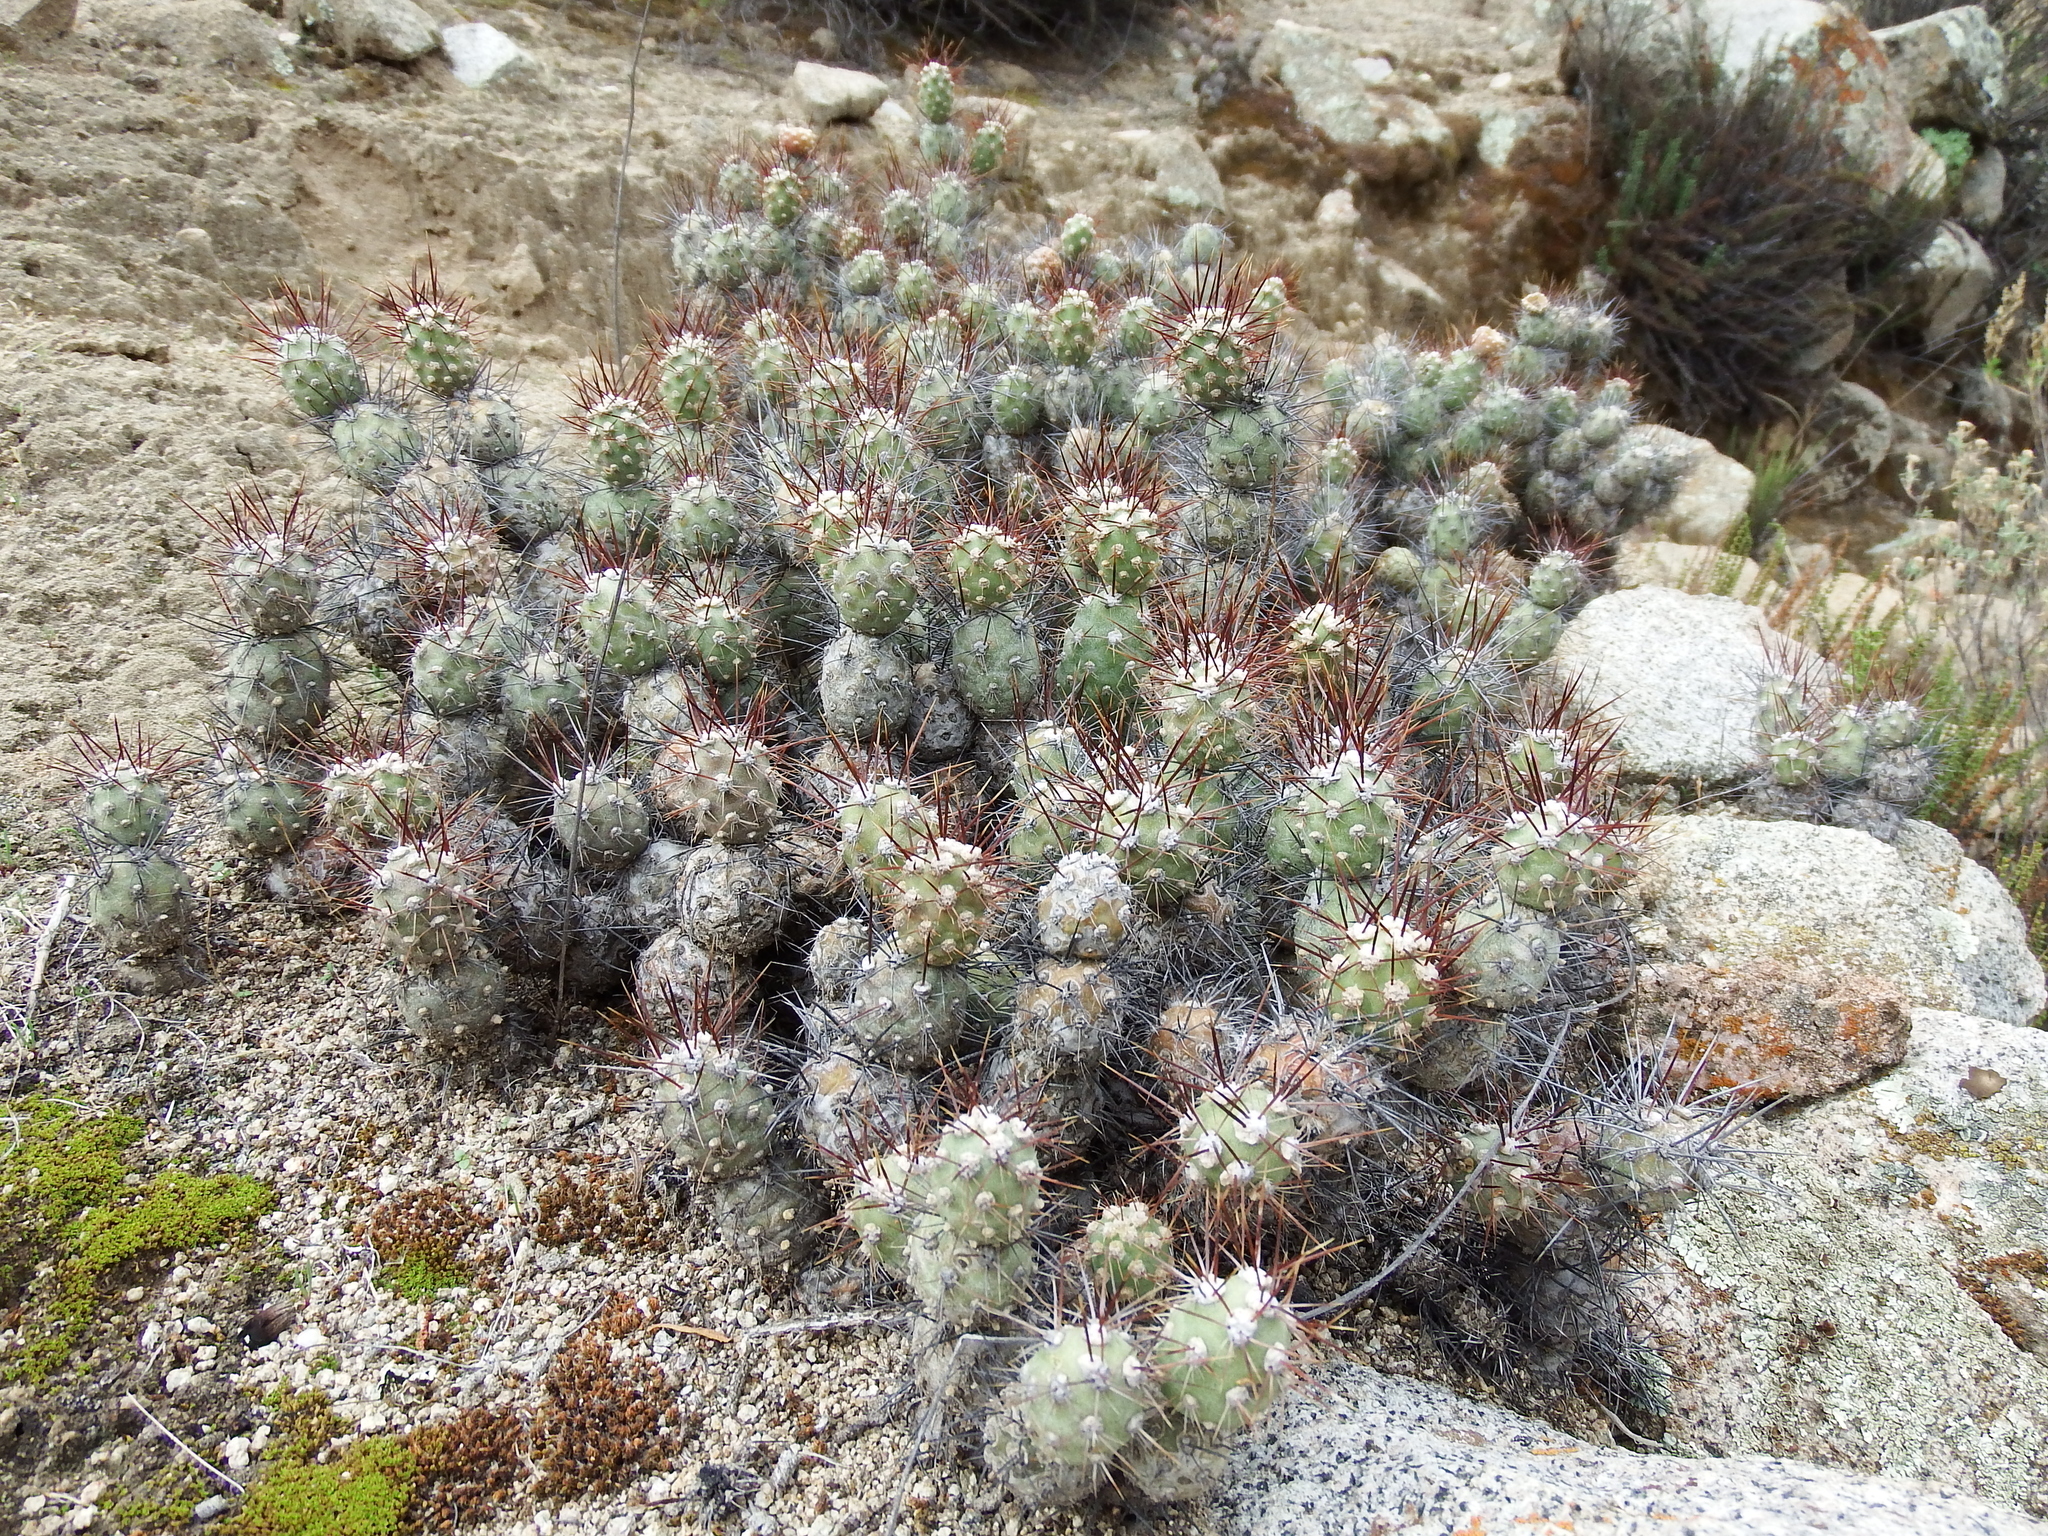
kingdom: Plantae
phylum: Tracheophyta
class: Magnoliopsida
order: Caryophyllales
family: Cactaceae
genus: Cumulopuntia
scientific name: Cumulopuntia leucophaea
